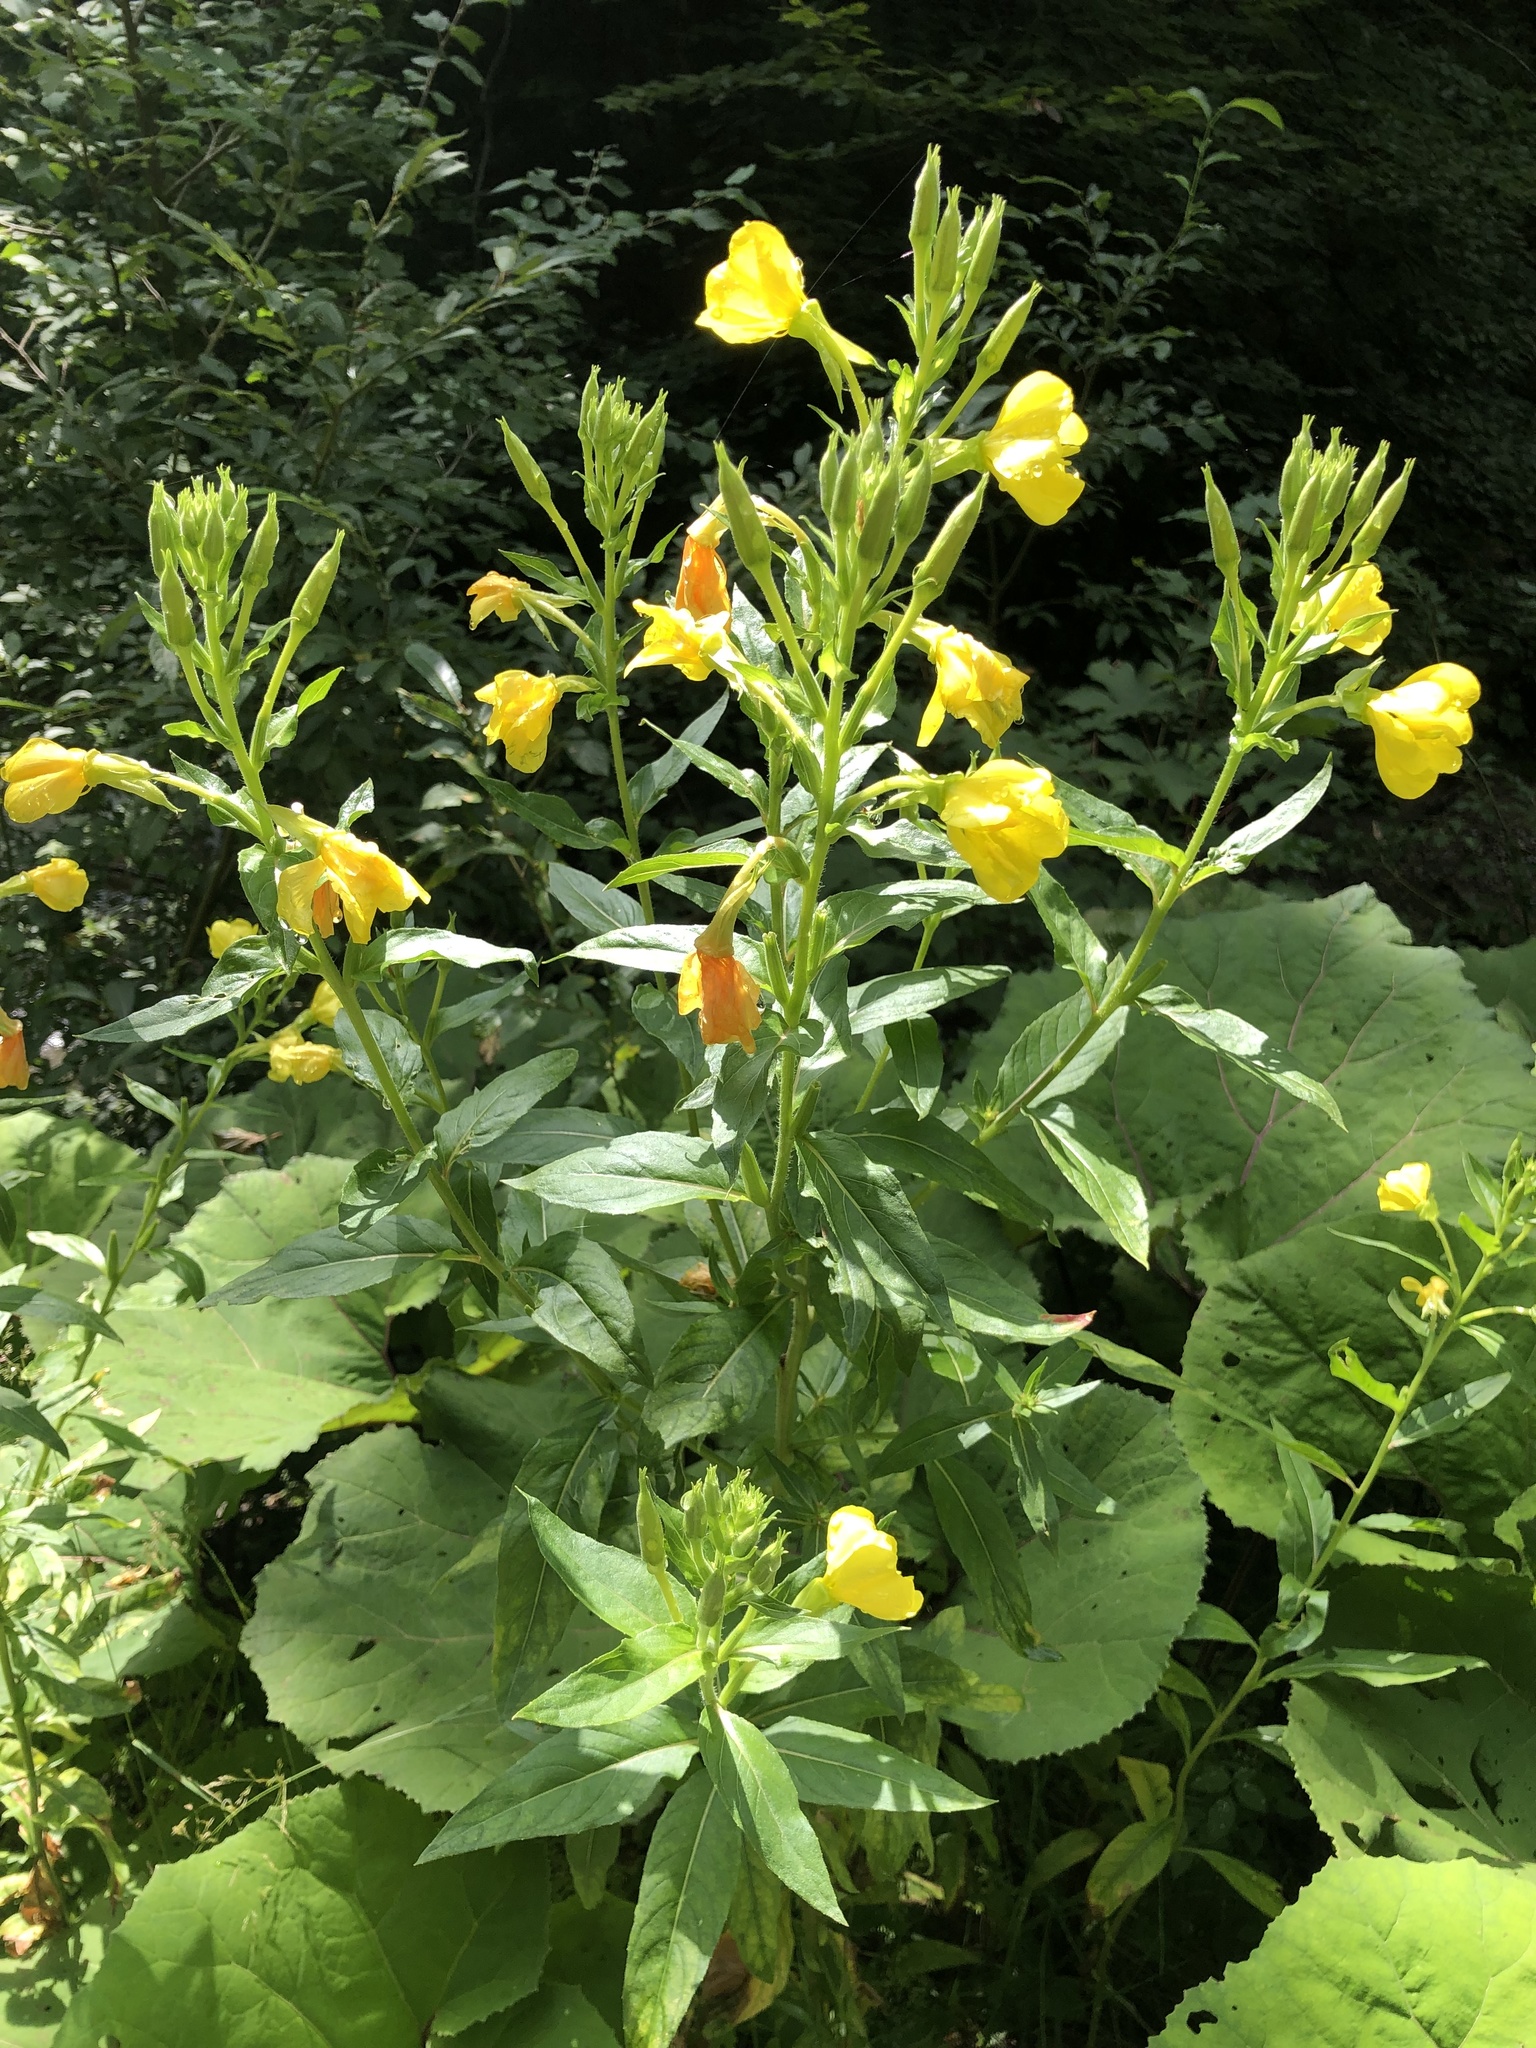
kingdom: Plantae
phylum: Tracheophyta
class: Magnoliopsida
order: Myrtales
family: Onagraceae
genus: Oenothera
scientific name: Oenothera biennis
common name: Common evening-primrose
